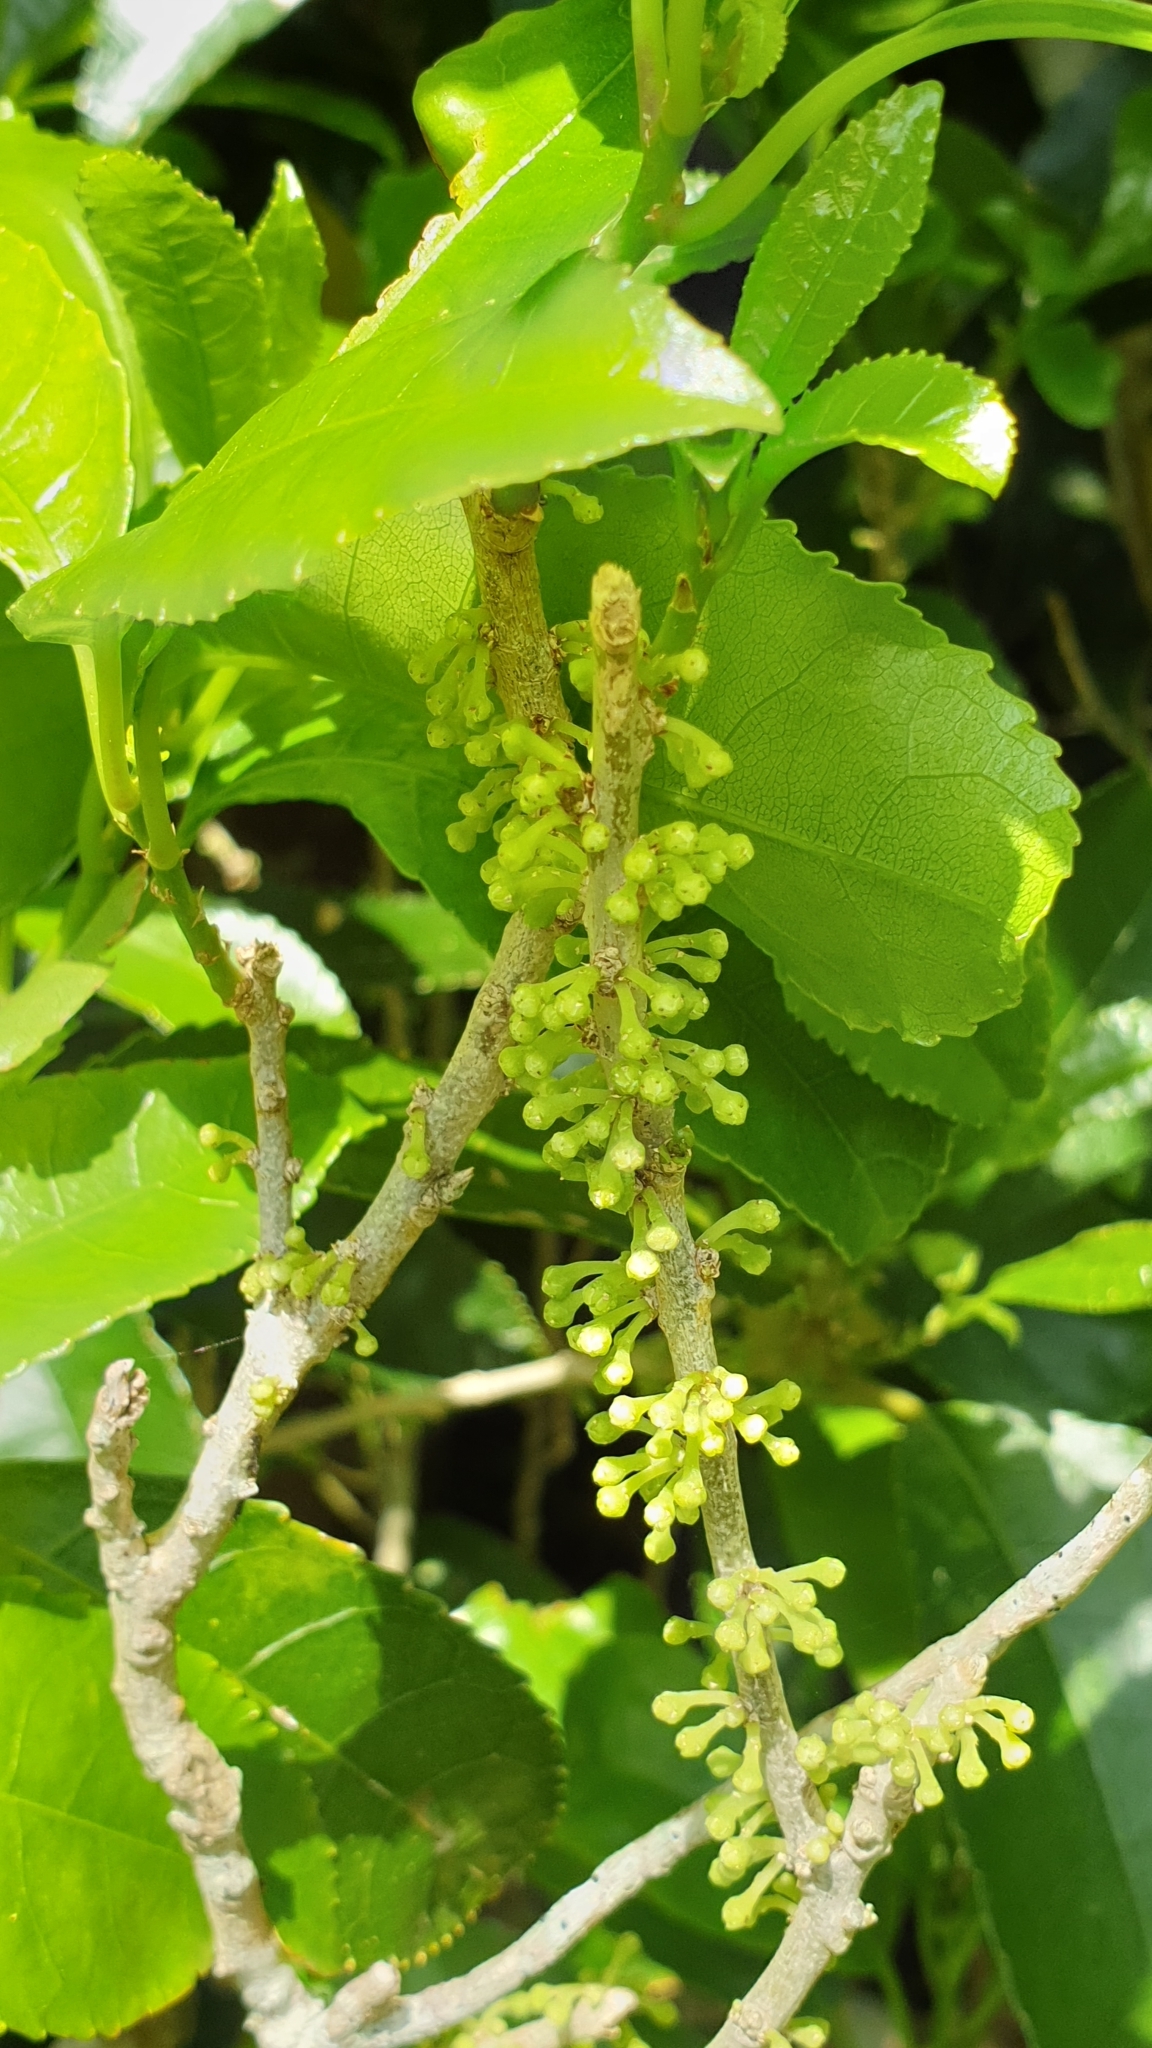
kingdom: Plantae
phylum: Tracheophyta
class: Magnoliopsida
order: Malpighiales
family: Violaceae
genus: Melicytus
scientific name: Melicytus ramiflorus
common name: Mahoe
